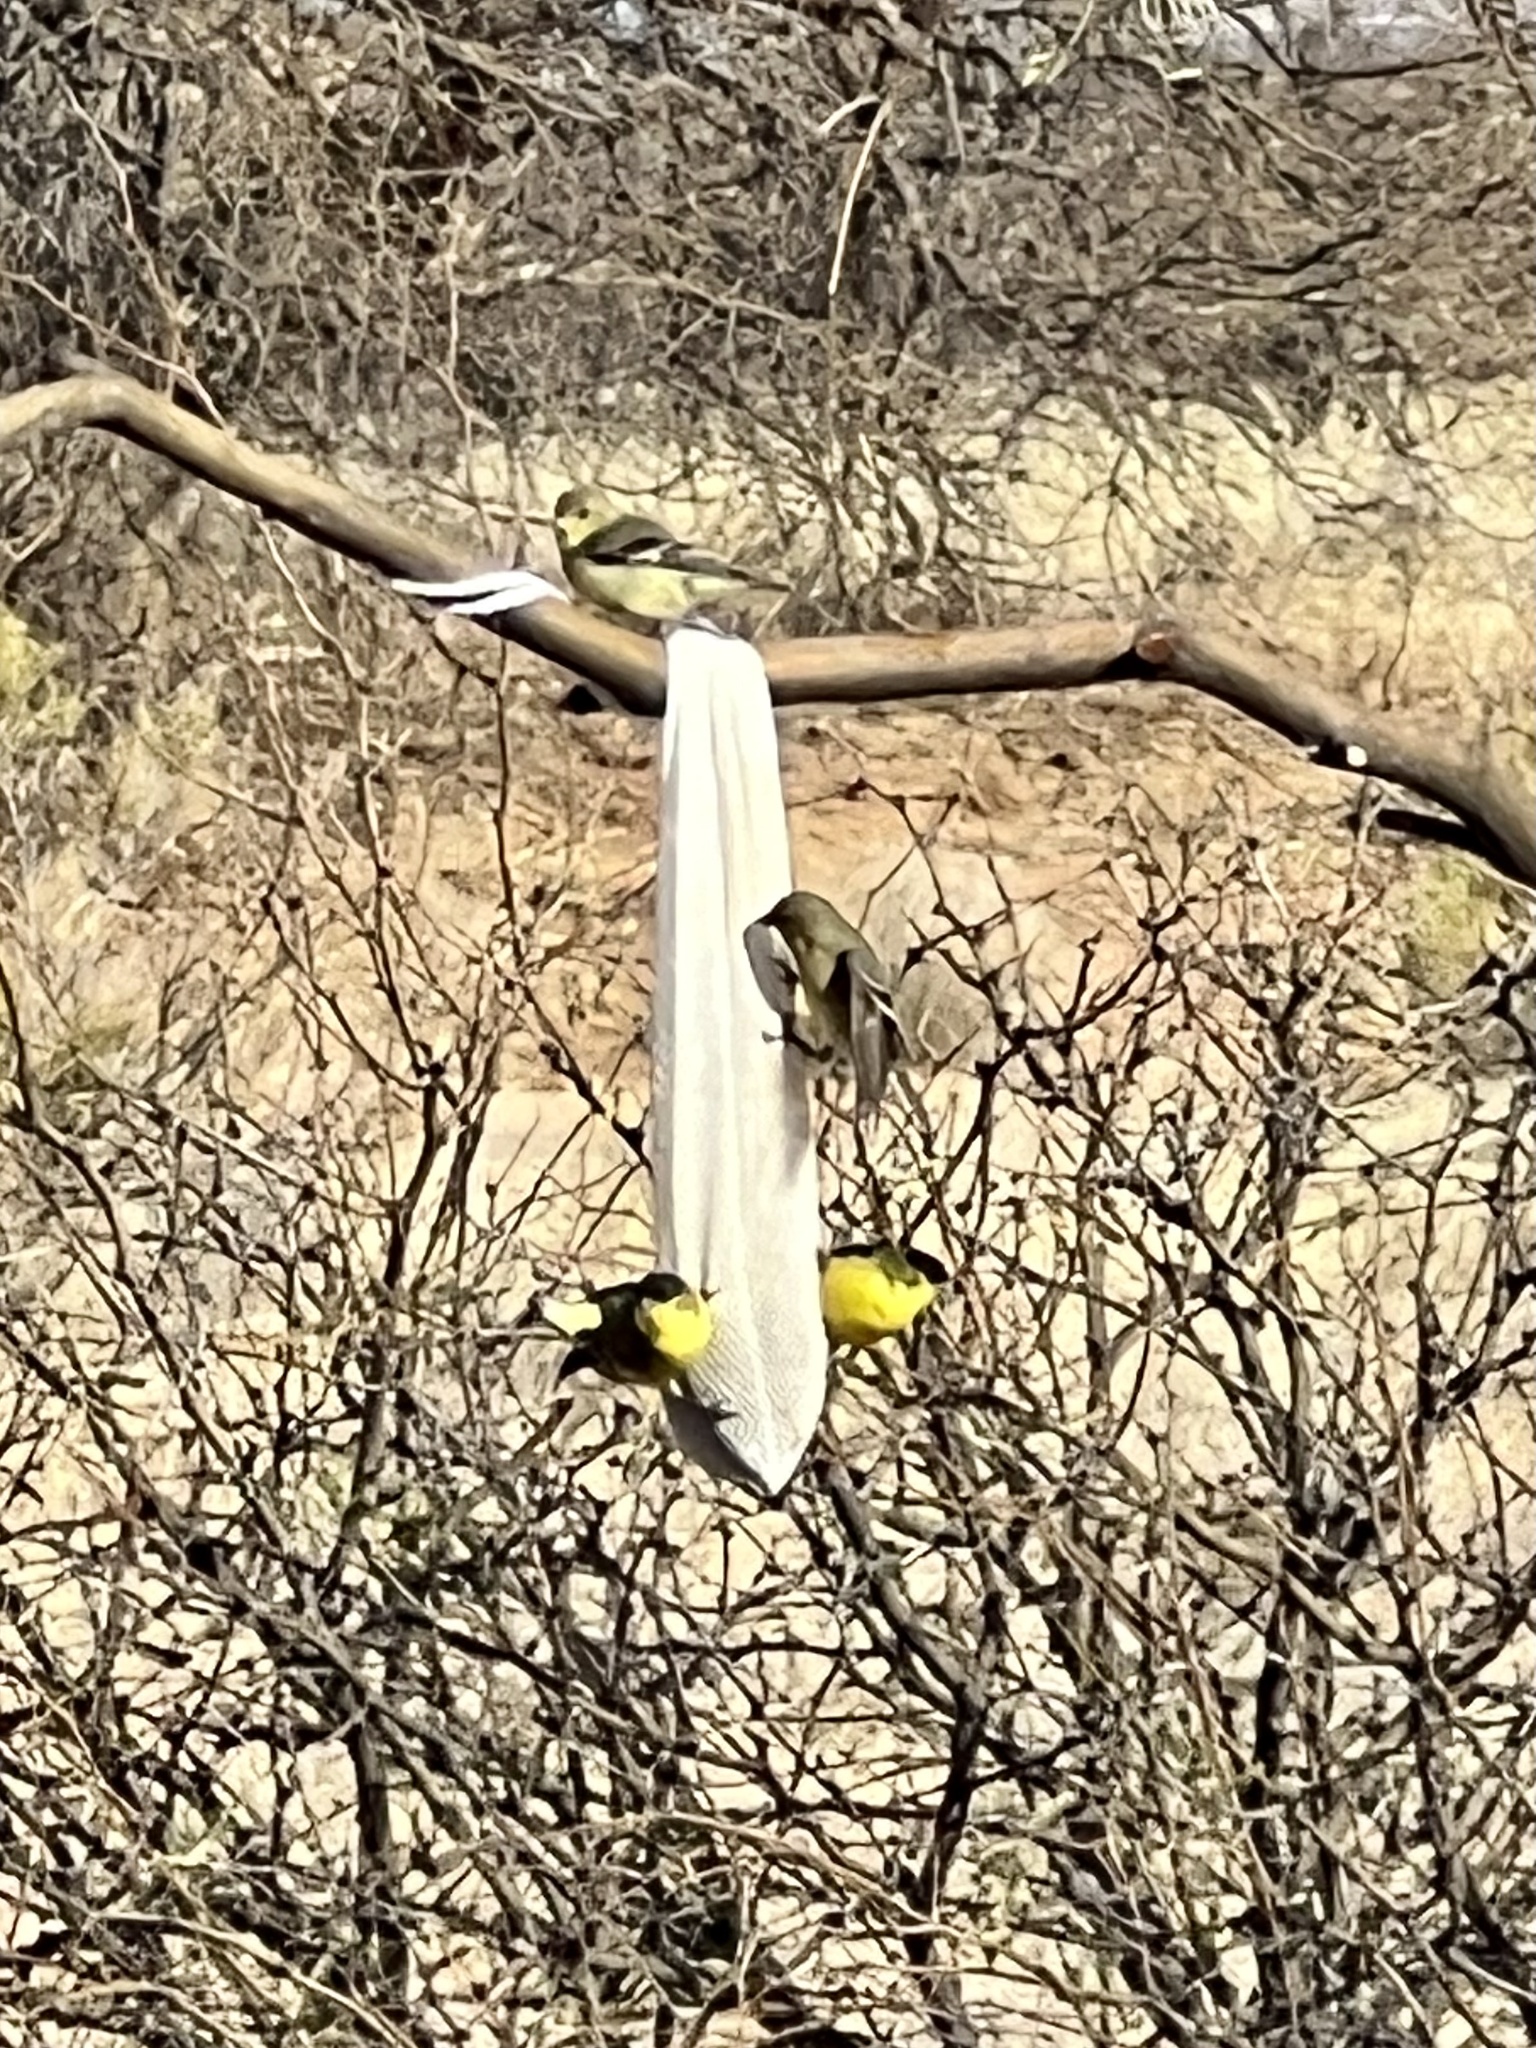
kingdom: Animalia
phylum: Chordata
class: Aves
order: Passeriformes
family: Fringillidae
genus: Spinus
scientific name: Spinus psaltria
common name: Lesser goldfinch
